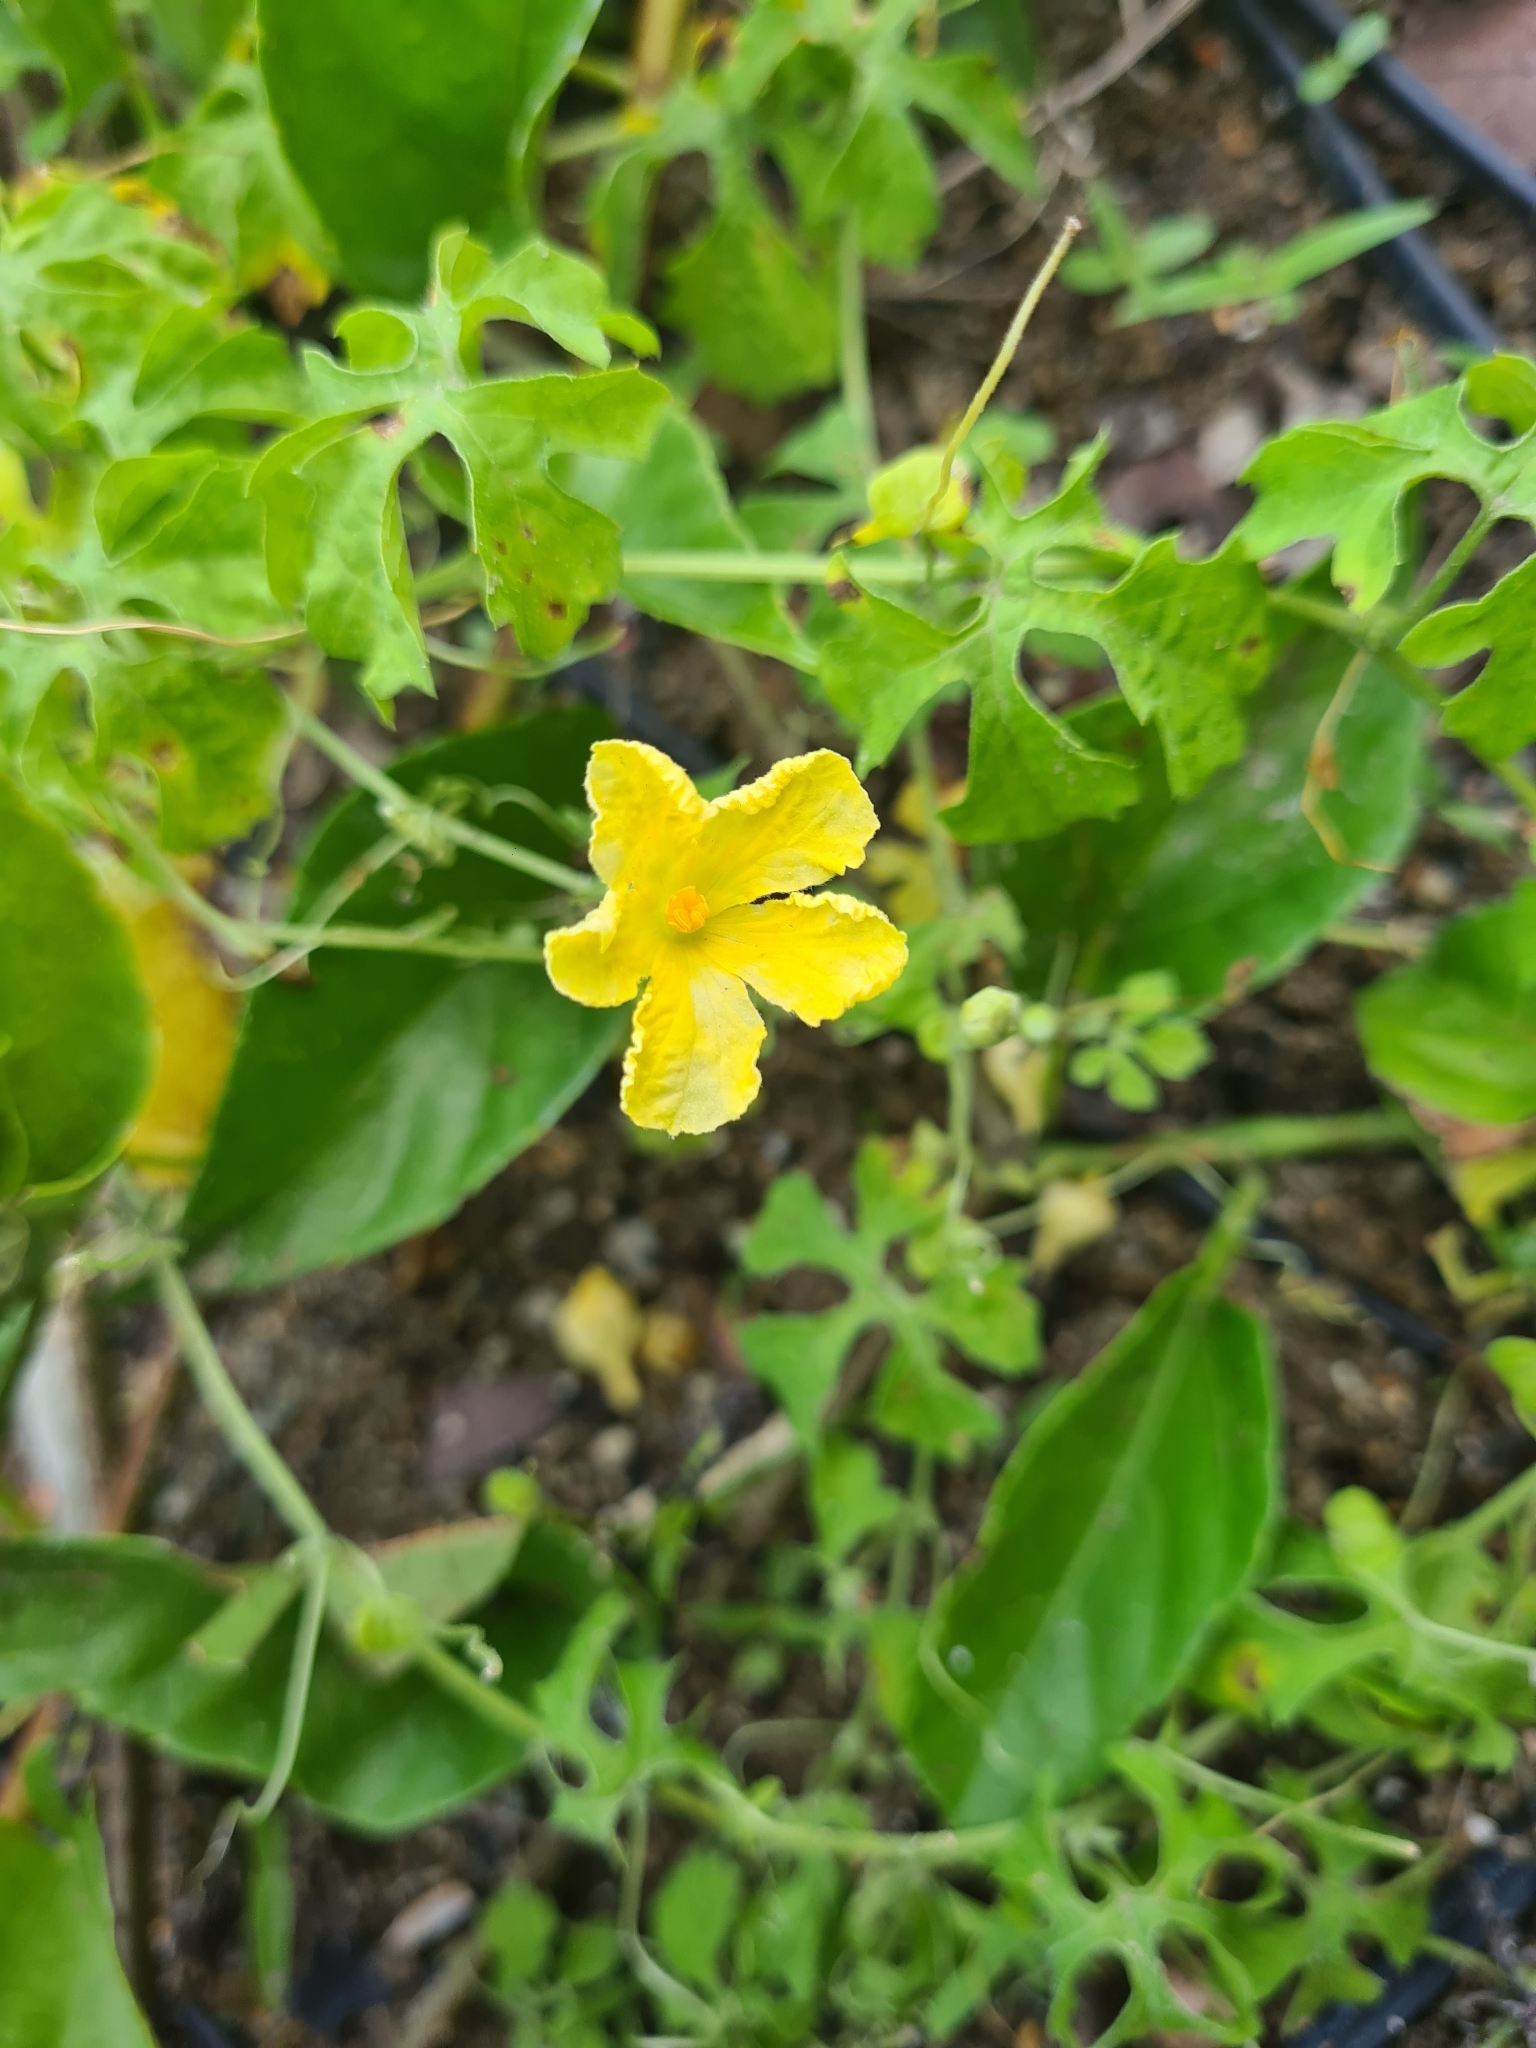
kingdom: Plantae
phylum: Tracheophyta
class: Magnoliopsida
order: Cucurbitales
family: Cucurbitaceae
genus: Momordica
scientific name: Momordica charantia
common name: Balsampear
